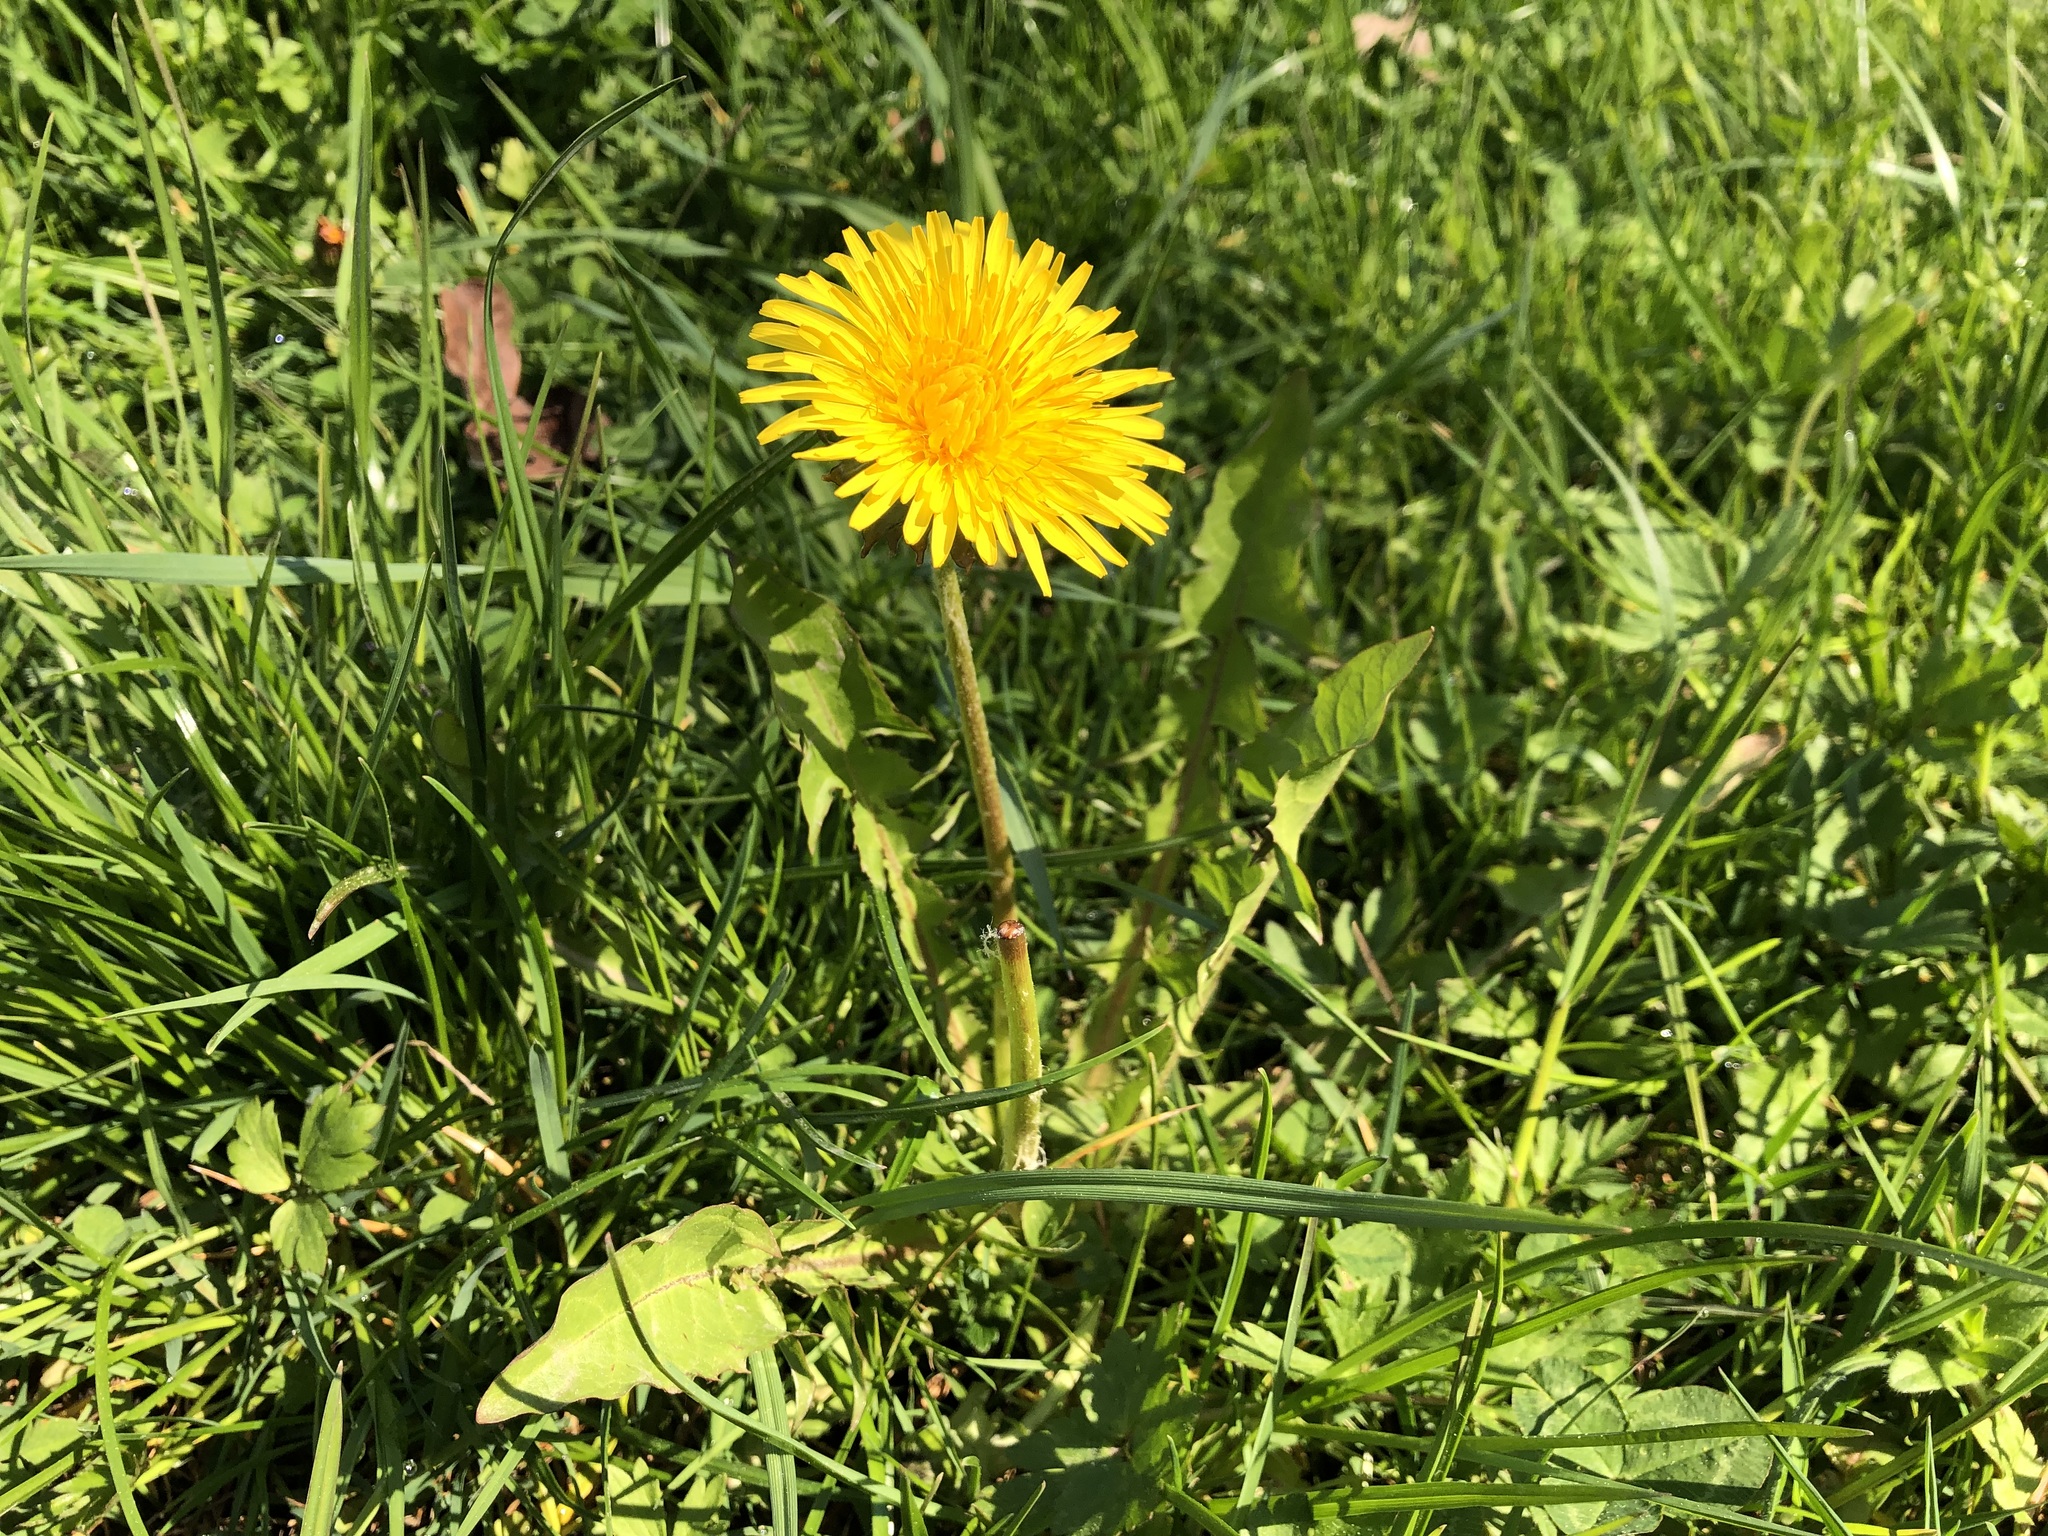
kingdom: Plantae
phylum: Tracheophyta
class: Magnoliopsida
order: Asterales
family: Asteraceae
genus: Taraxacum
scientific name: Taraxacum officinale
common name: Common dandelion
